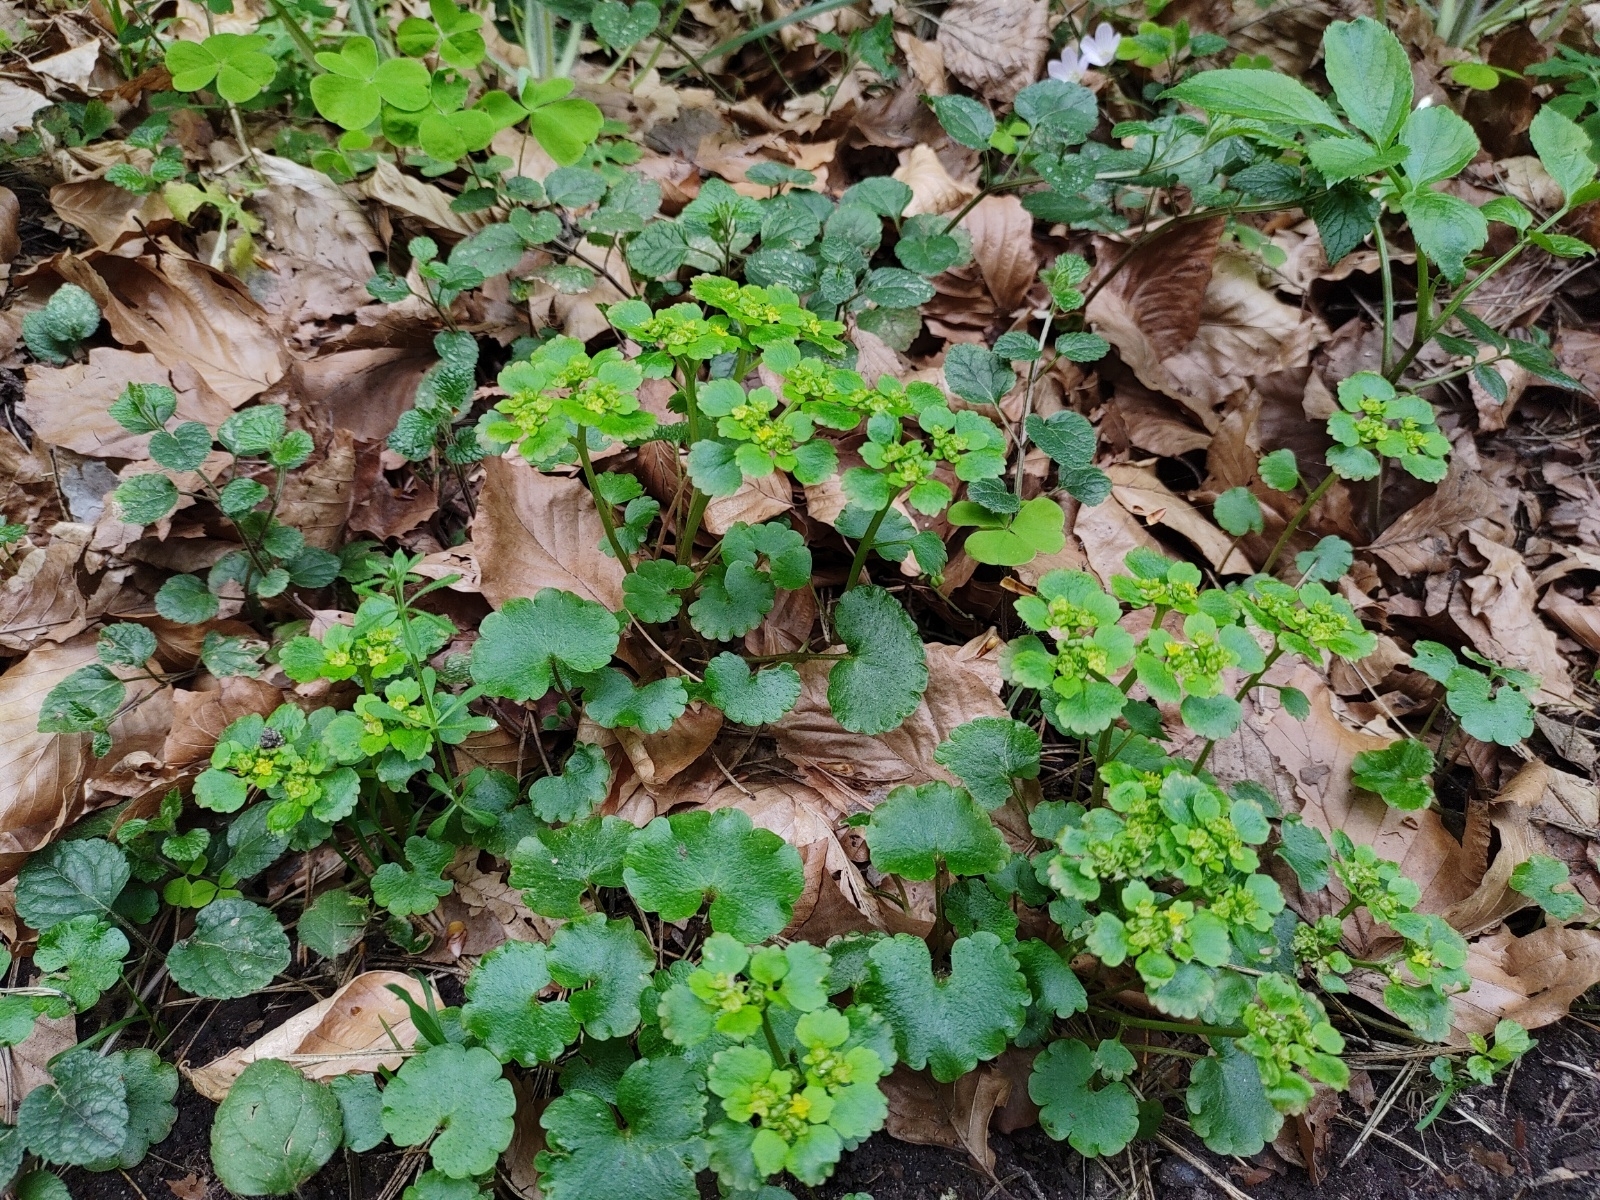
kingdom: Plantae
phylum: Tracheophyta
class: Magnoliopsida
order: Saxifragales
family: Saxifragaceae
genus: Chrysosplenium
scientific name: Chrysosplenium alternifolium
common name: Alternate-leaved golden-saxifrage
